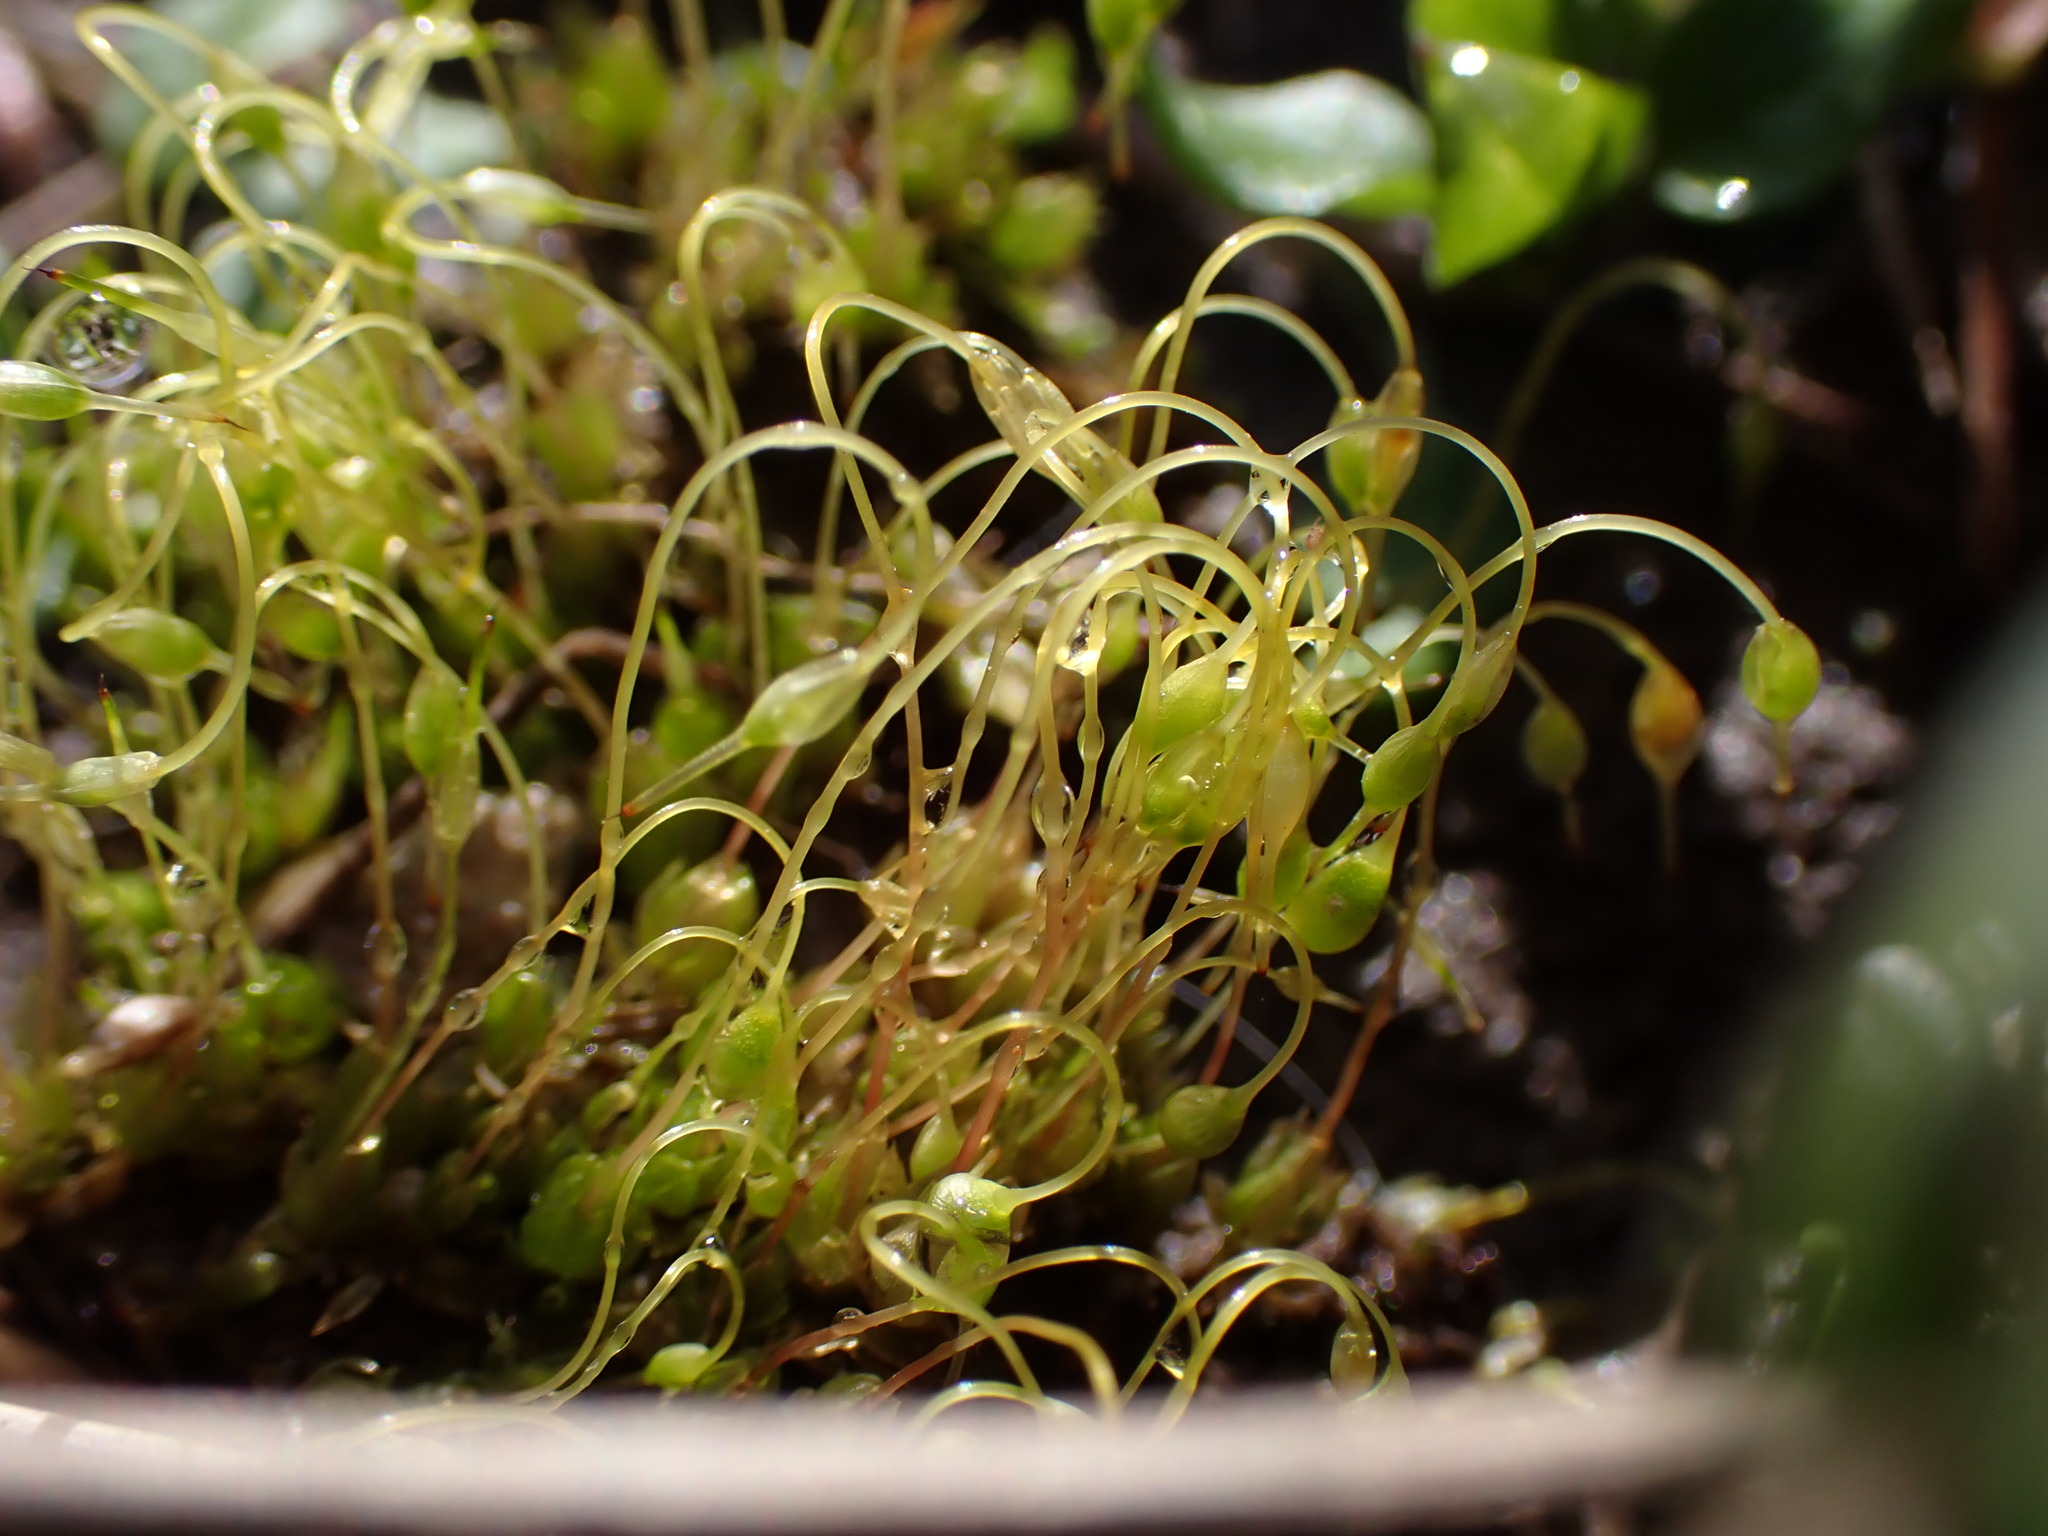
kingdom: Plantae
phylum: Bryophyta
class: Bryopsida
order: Funariales
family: Funariaceae
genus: Funaria
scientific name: Funaria hygrometrica
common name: Common cord moss
